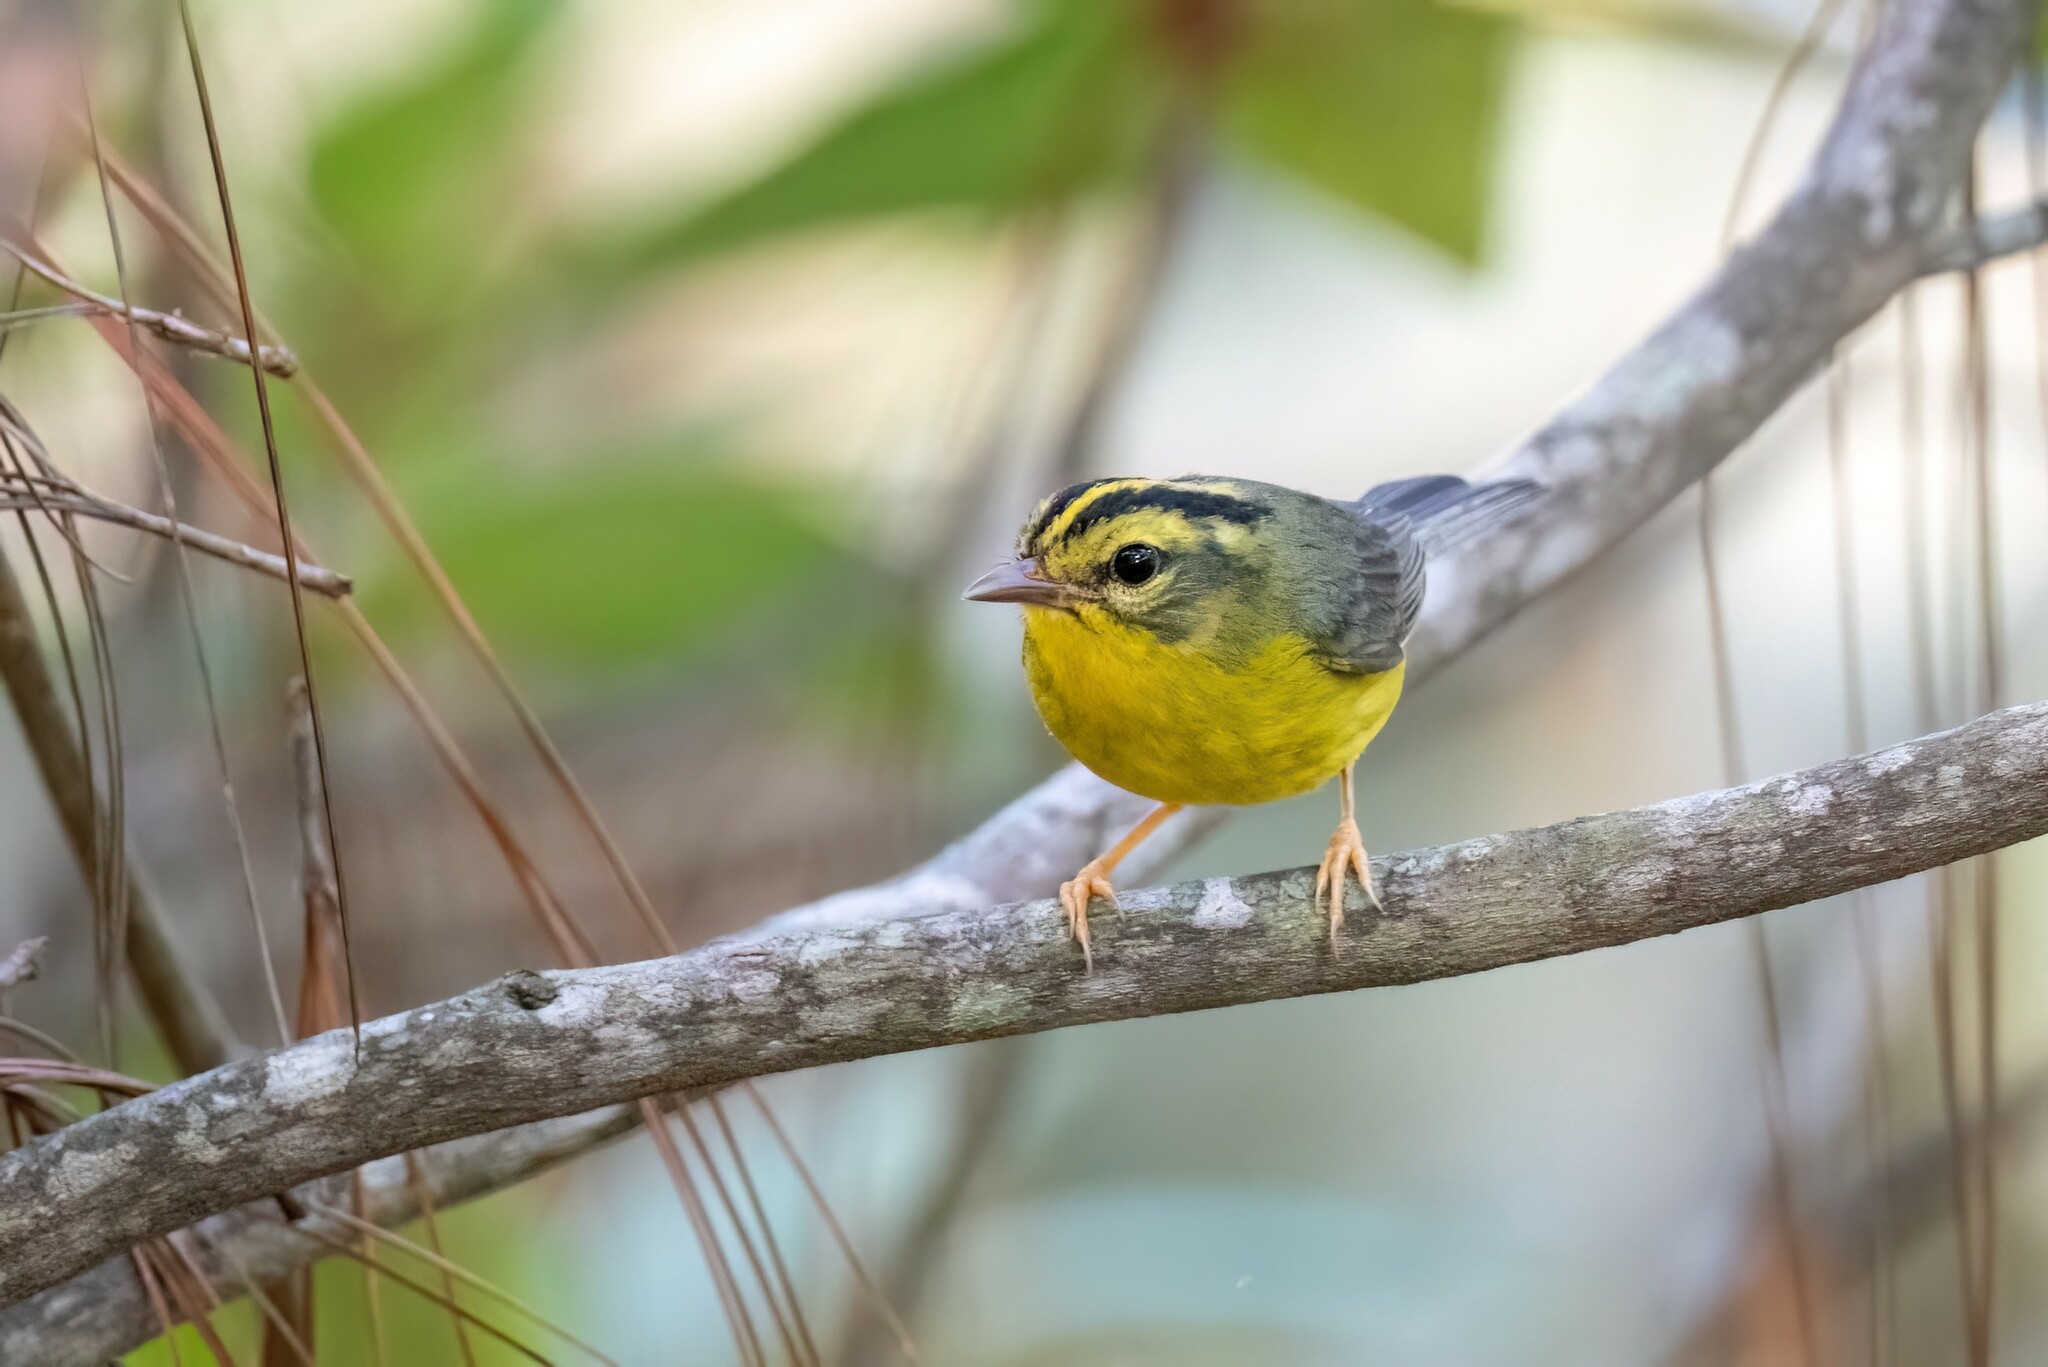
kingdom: Animalia
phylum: Chordata
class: Aves
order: Passeriformes
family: Parulidae
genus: Basileuterus
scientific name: Basileuterus culicivorus
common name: Golden-crowned warbler
